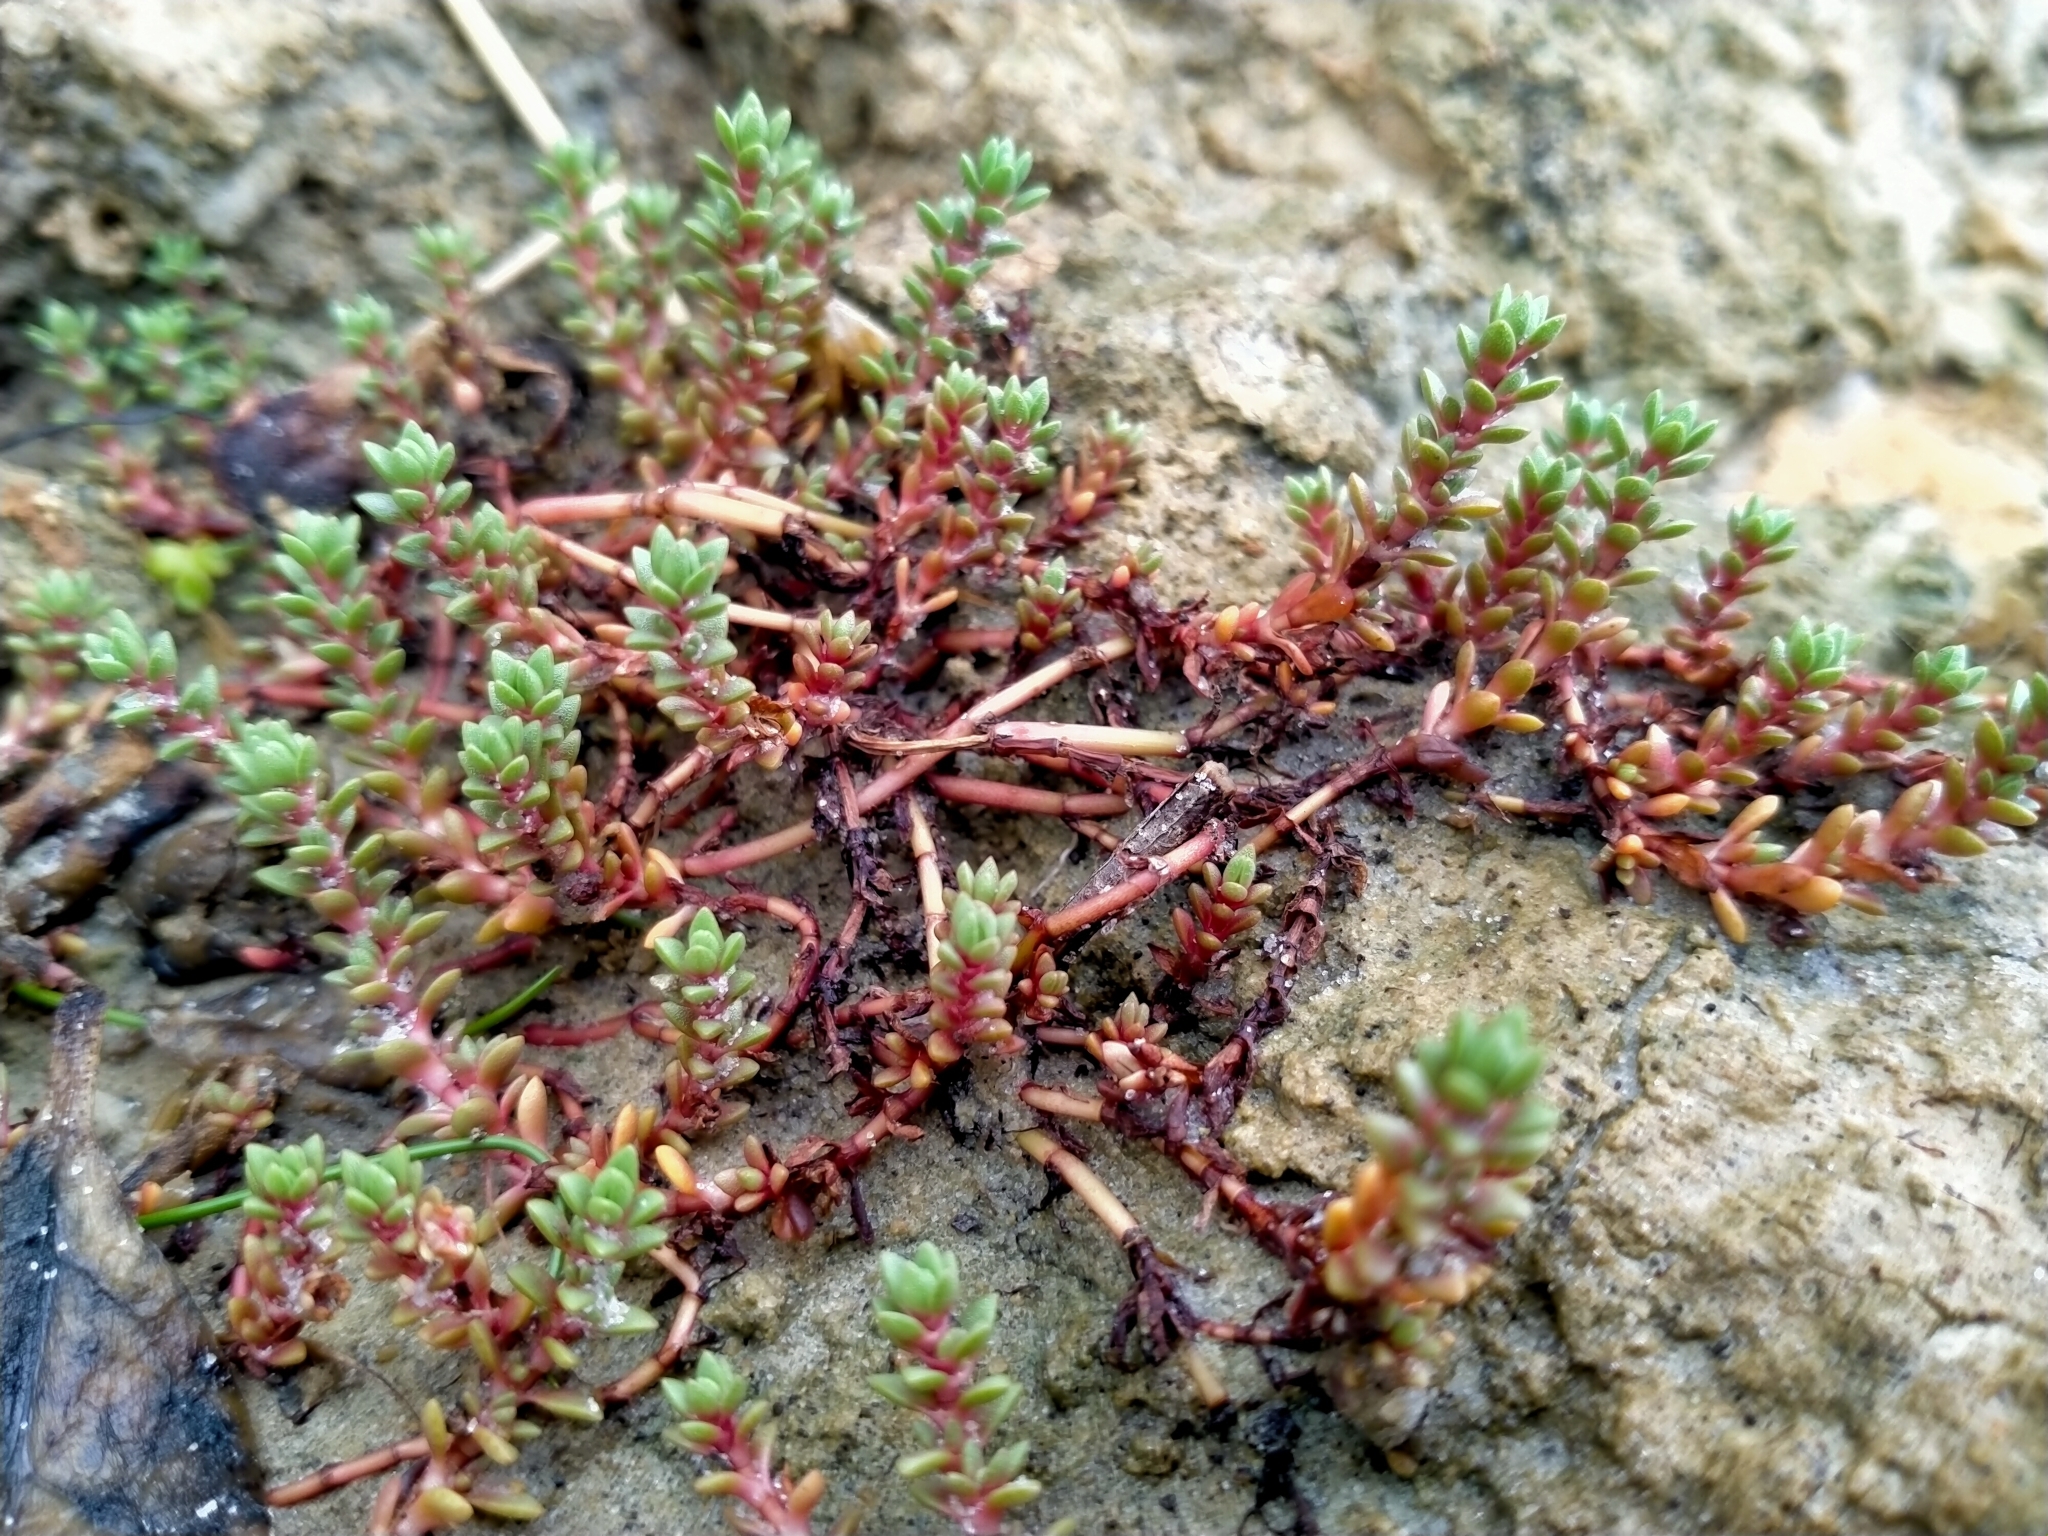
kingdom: Plantae
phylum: Tracheophyta
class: Magnoliopsida
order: Saxifragales
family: Crassulaceae
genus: Crassula
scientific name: Crassula moschata
